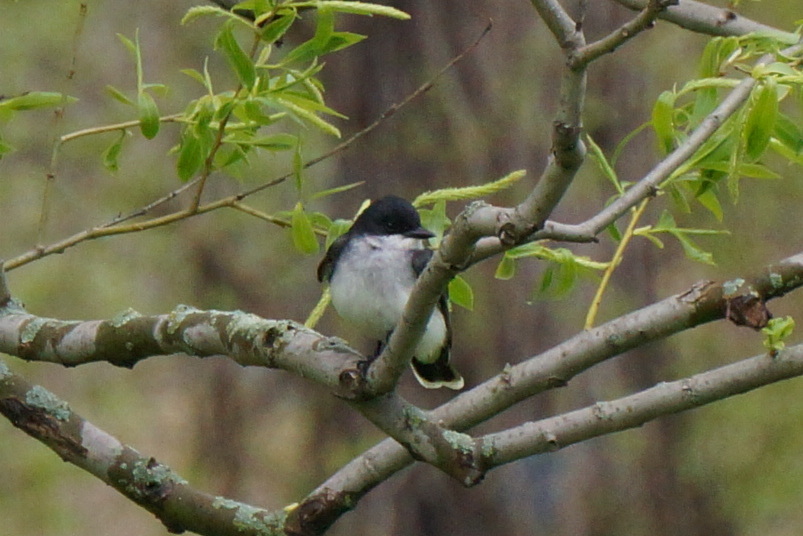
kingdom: Animalia
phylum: Chordata
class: Aves
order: Passeriformes
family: Tyrannidae
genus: Tyrannus
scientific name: Tyrannus tyrannus
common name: Eastern kingbird
